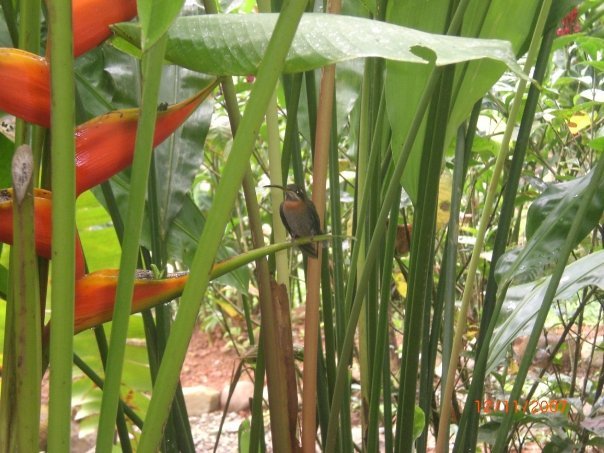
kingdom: Animalia
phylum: Chordata
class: Aves
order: Apodiformes
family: Trochilidae
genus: Threnetes
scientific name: Threnetes ruckeri
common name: Band-tailed barbthroat
